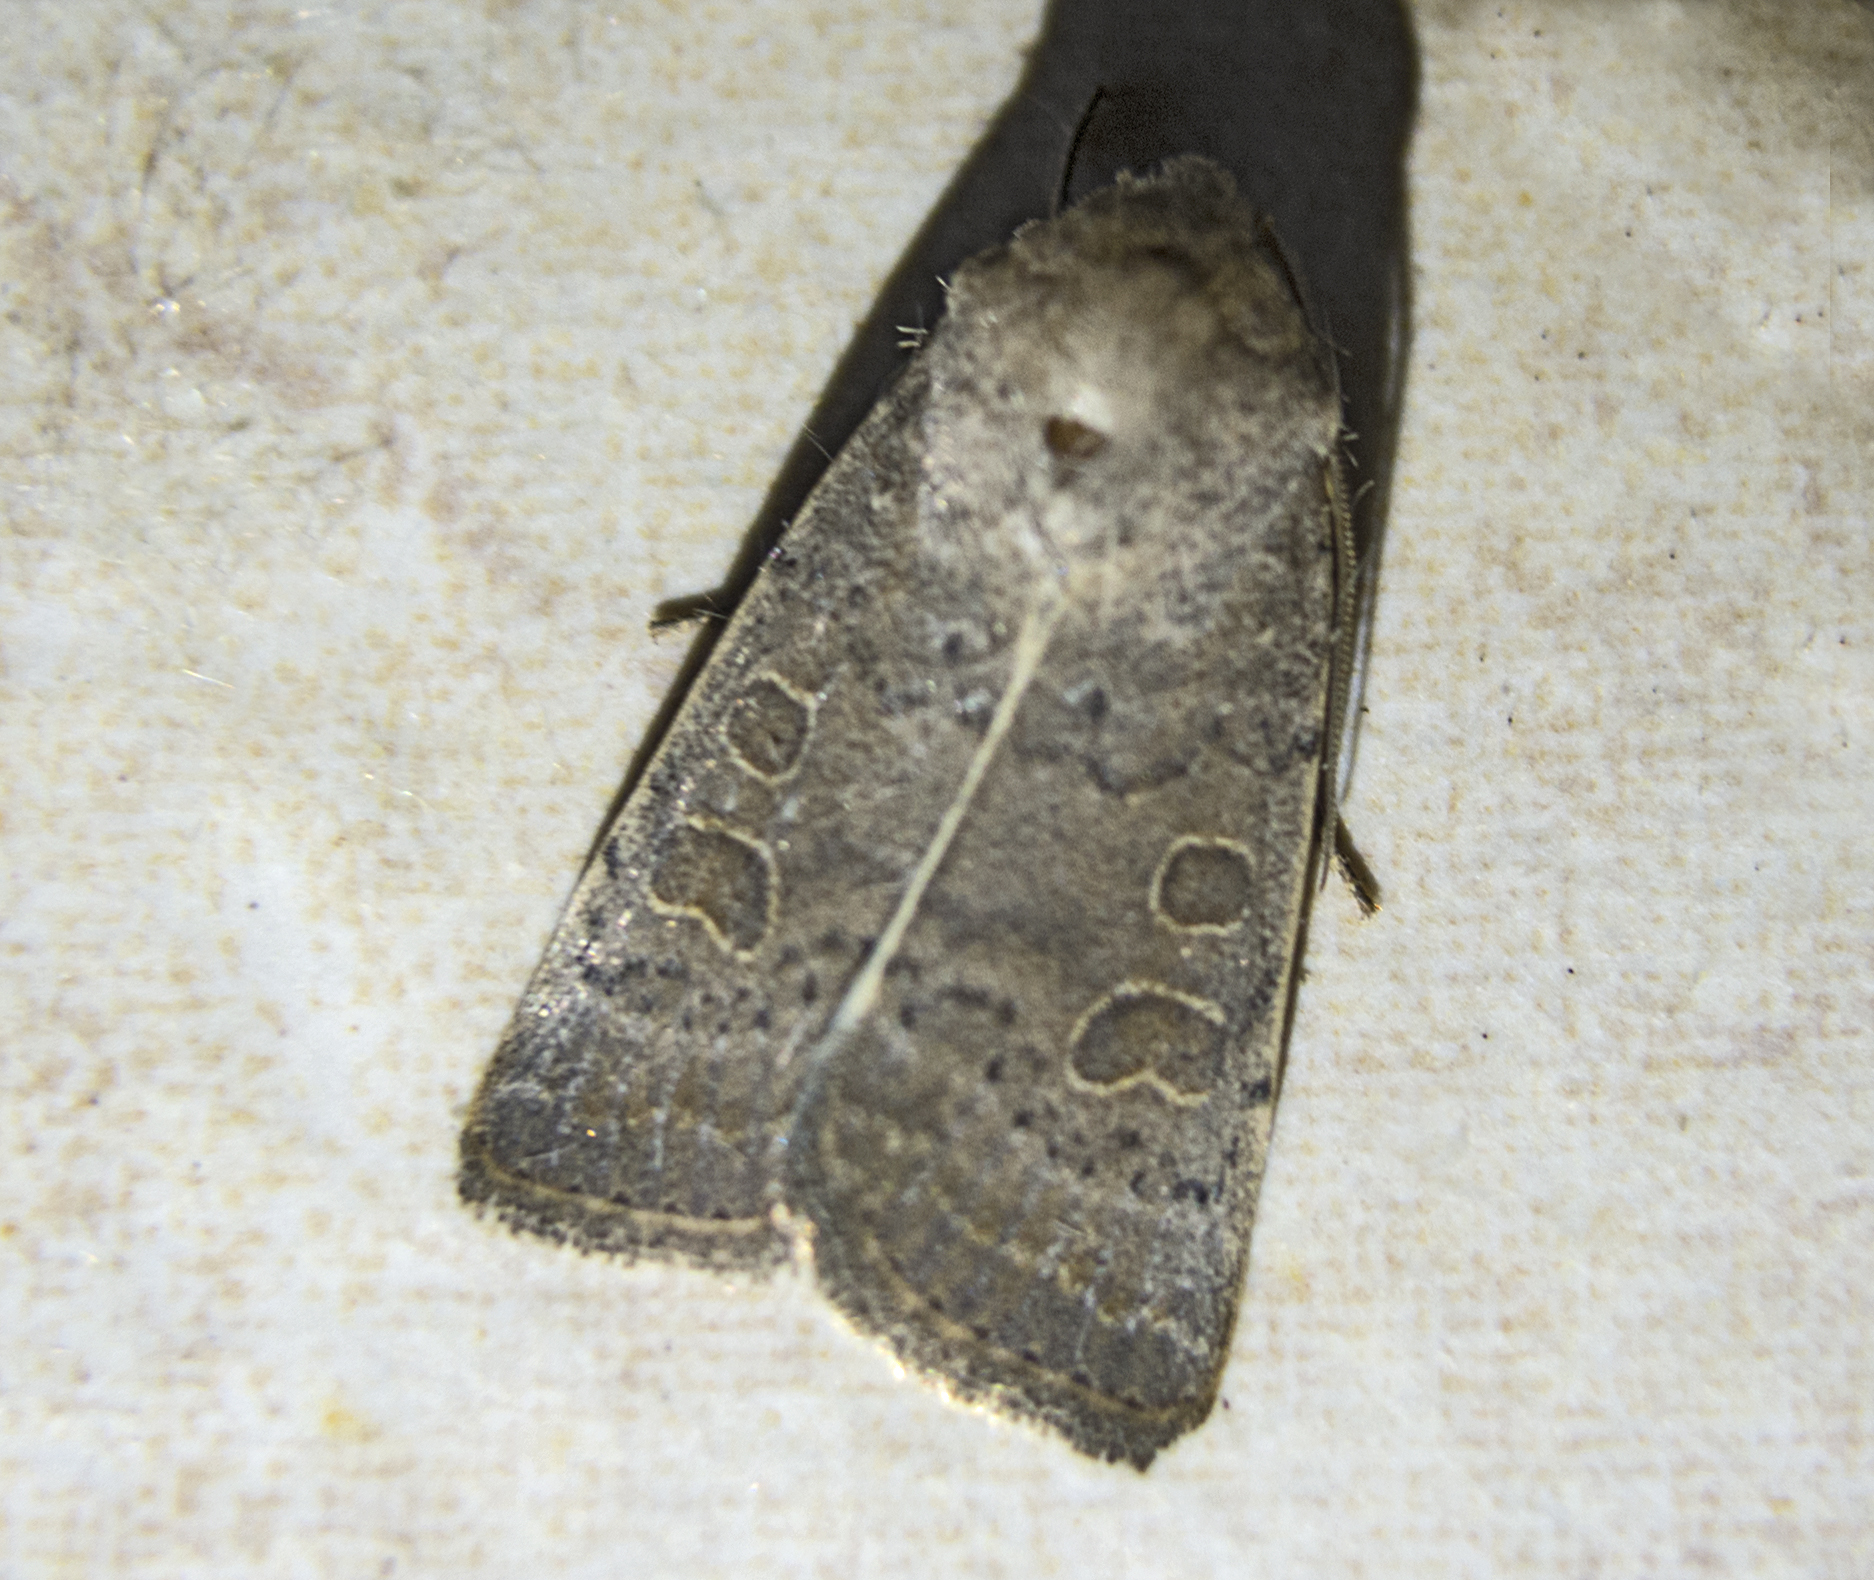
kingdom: Animalia
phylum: Arthropoda
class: Insecta
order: Lepidoptera
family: Noctuidae
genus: Hoplodrina
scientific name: Hoplodrina ambigua
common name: Vine's rustic
